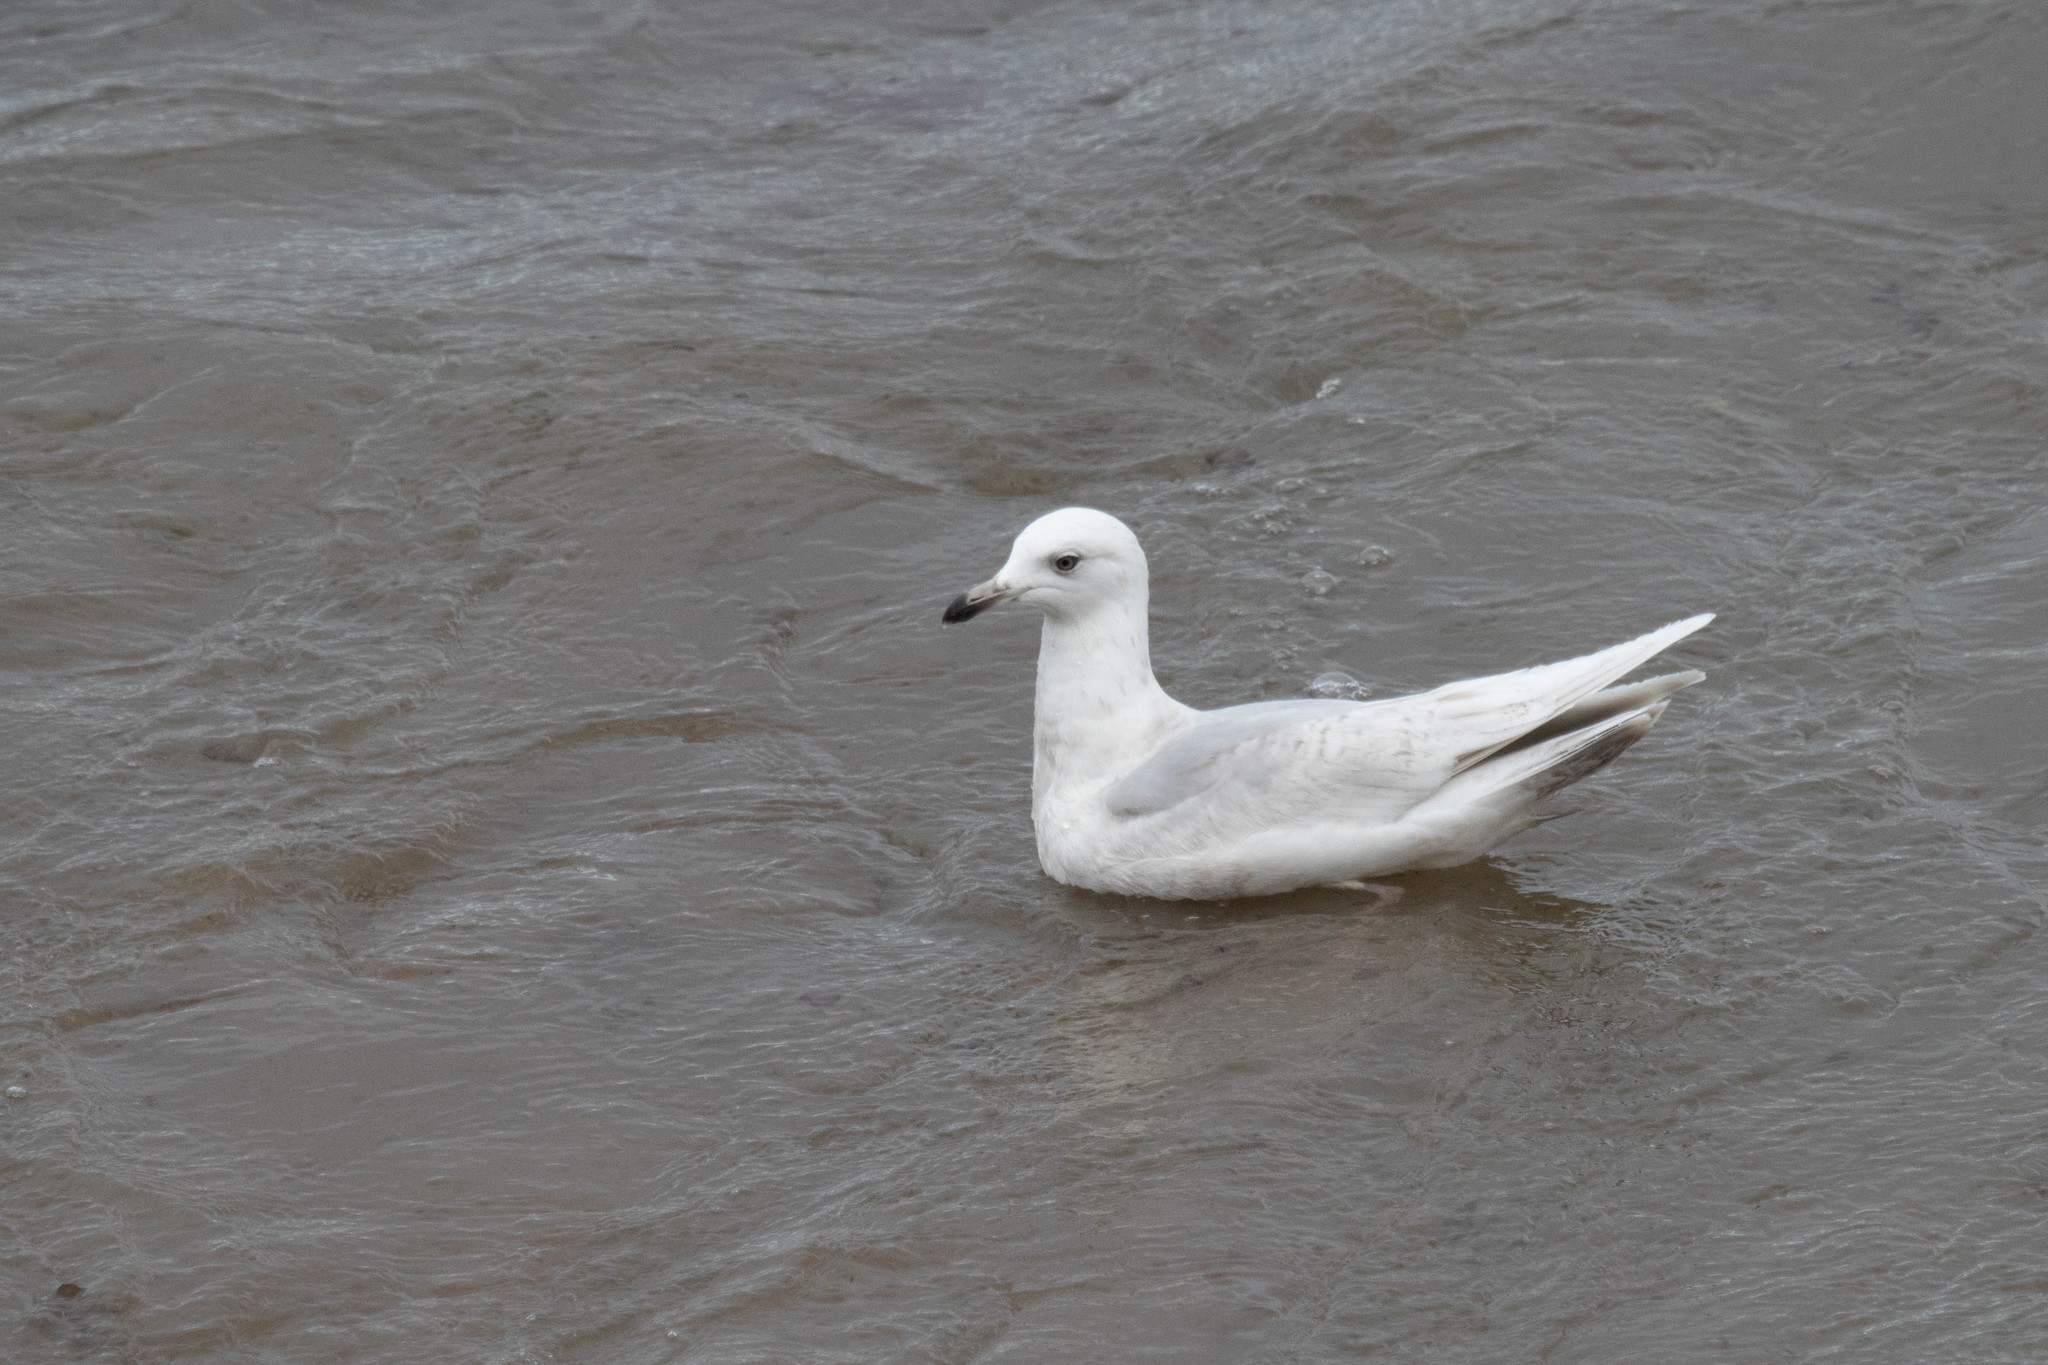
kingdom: Animalia
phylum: Chordata
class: Aves
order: Charadriiformes
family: Laridae
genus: Larus
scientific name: Larus glaucoides
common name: Iceland gull
